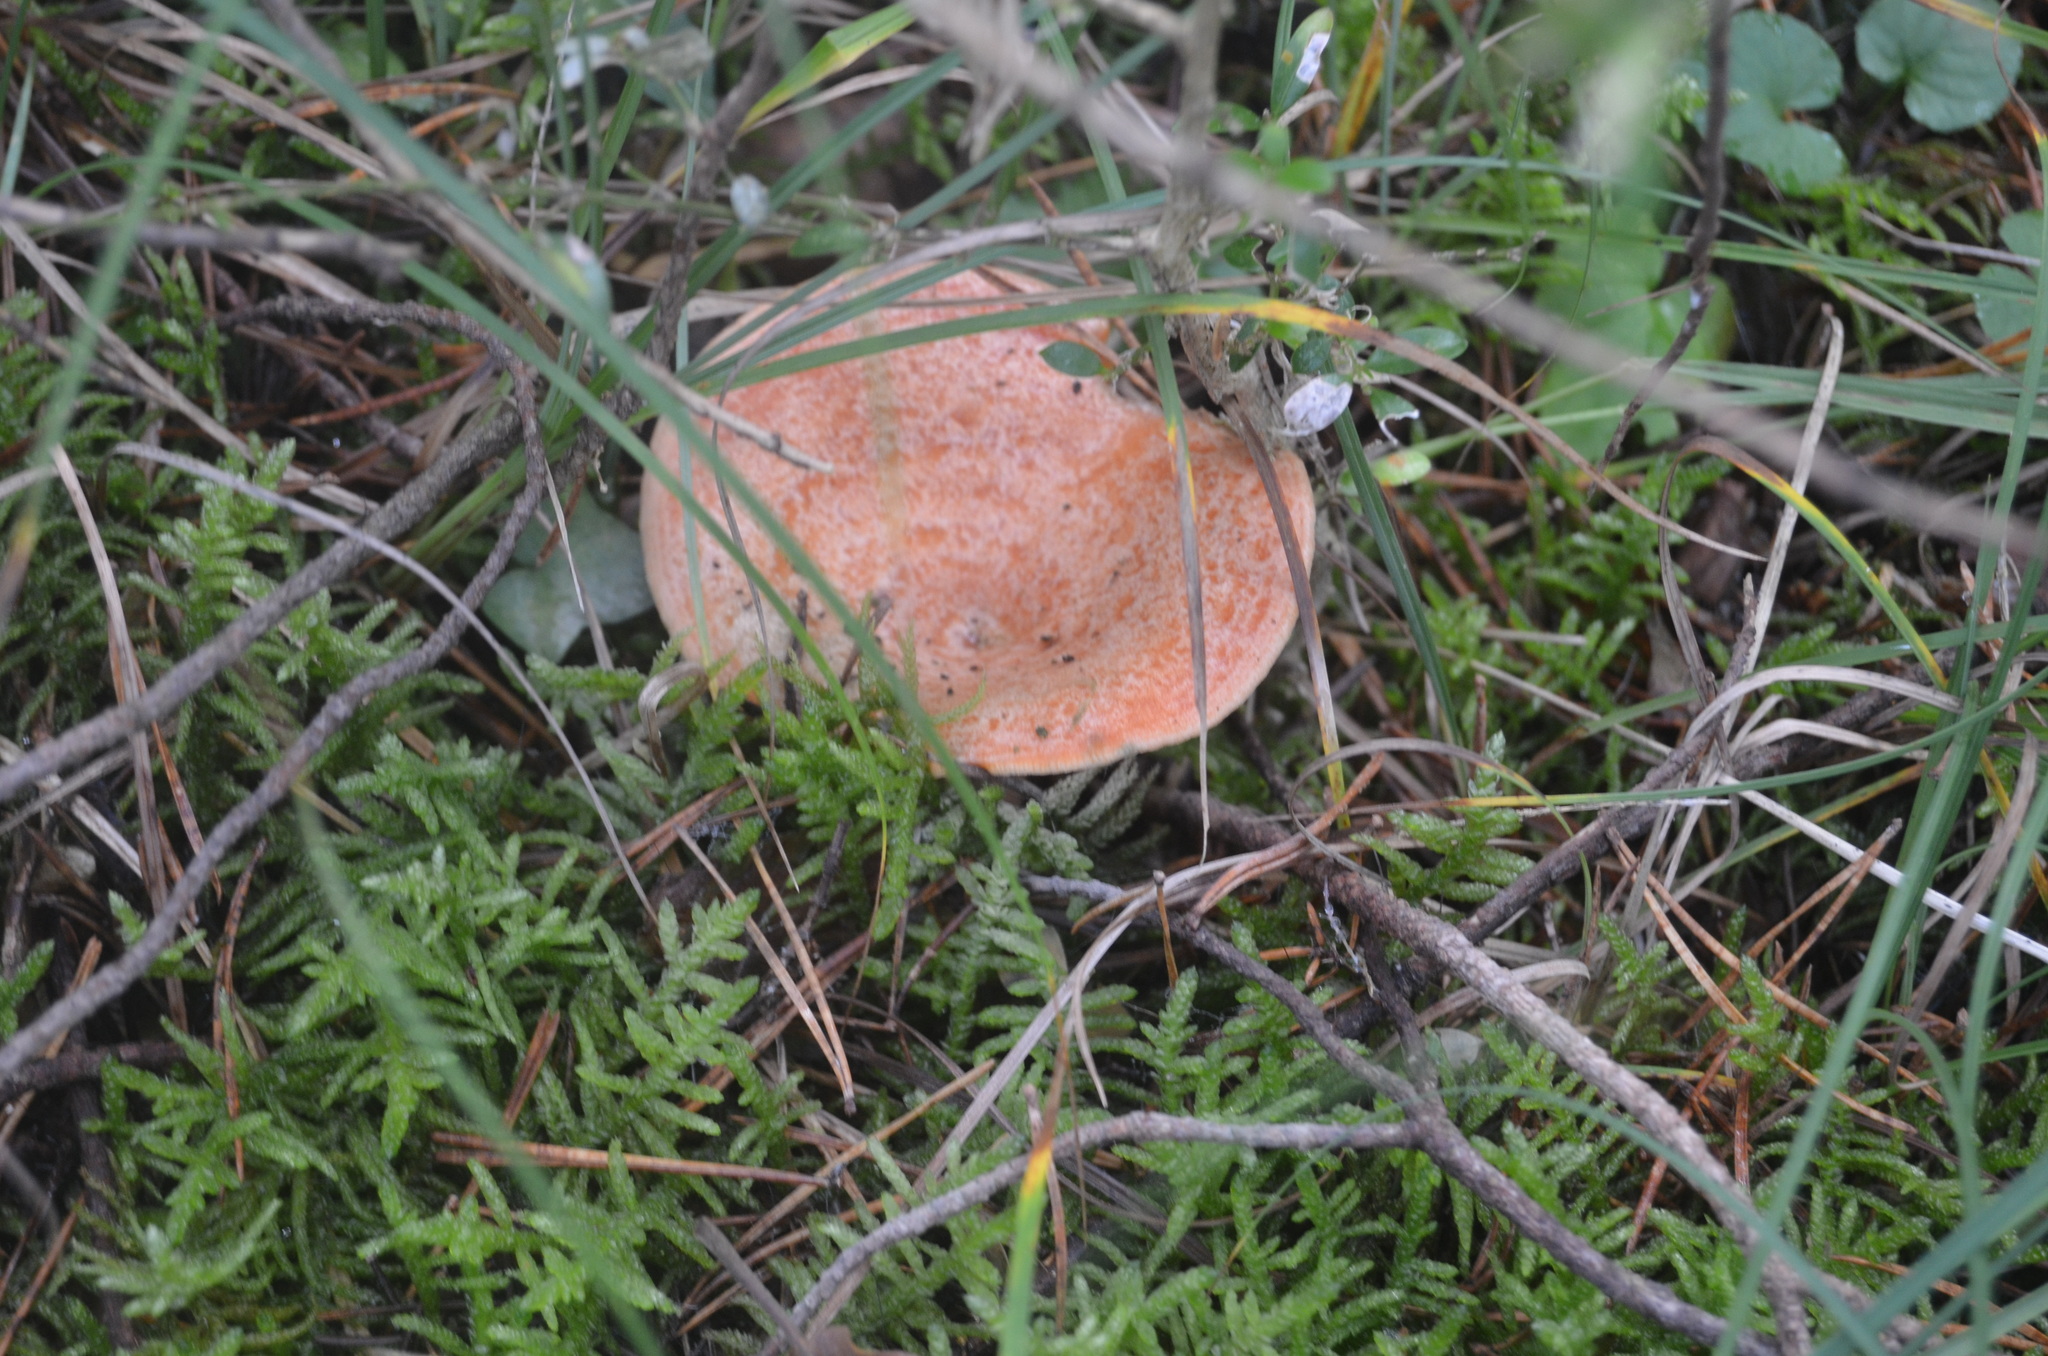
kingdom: Fungi
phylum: Basidiomycota
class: Agaricomycetes
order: Russulales
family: Russulaceae
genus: Lactarius
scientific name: Lactarius deliciosus
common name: Saffron milk-cap
